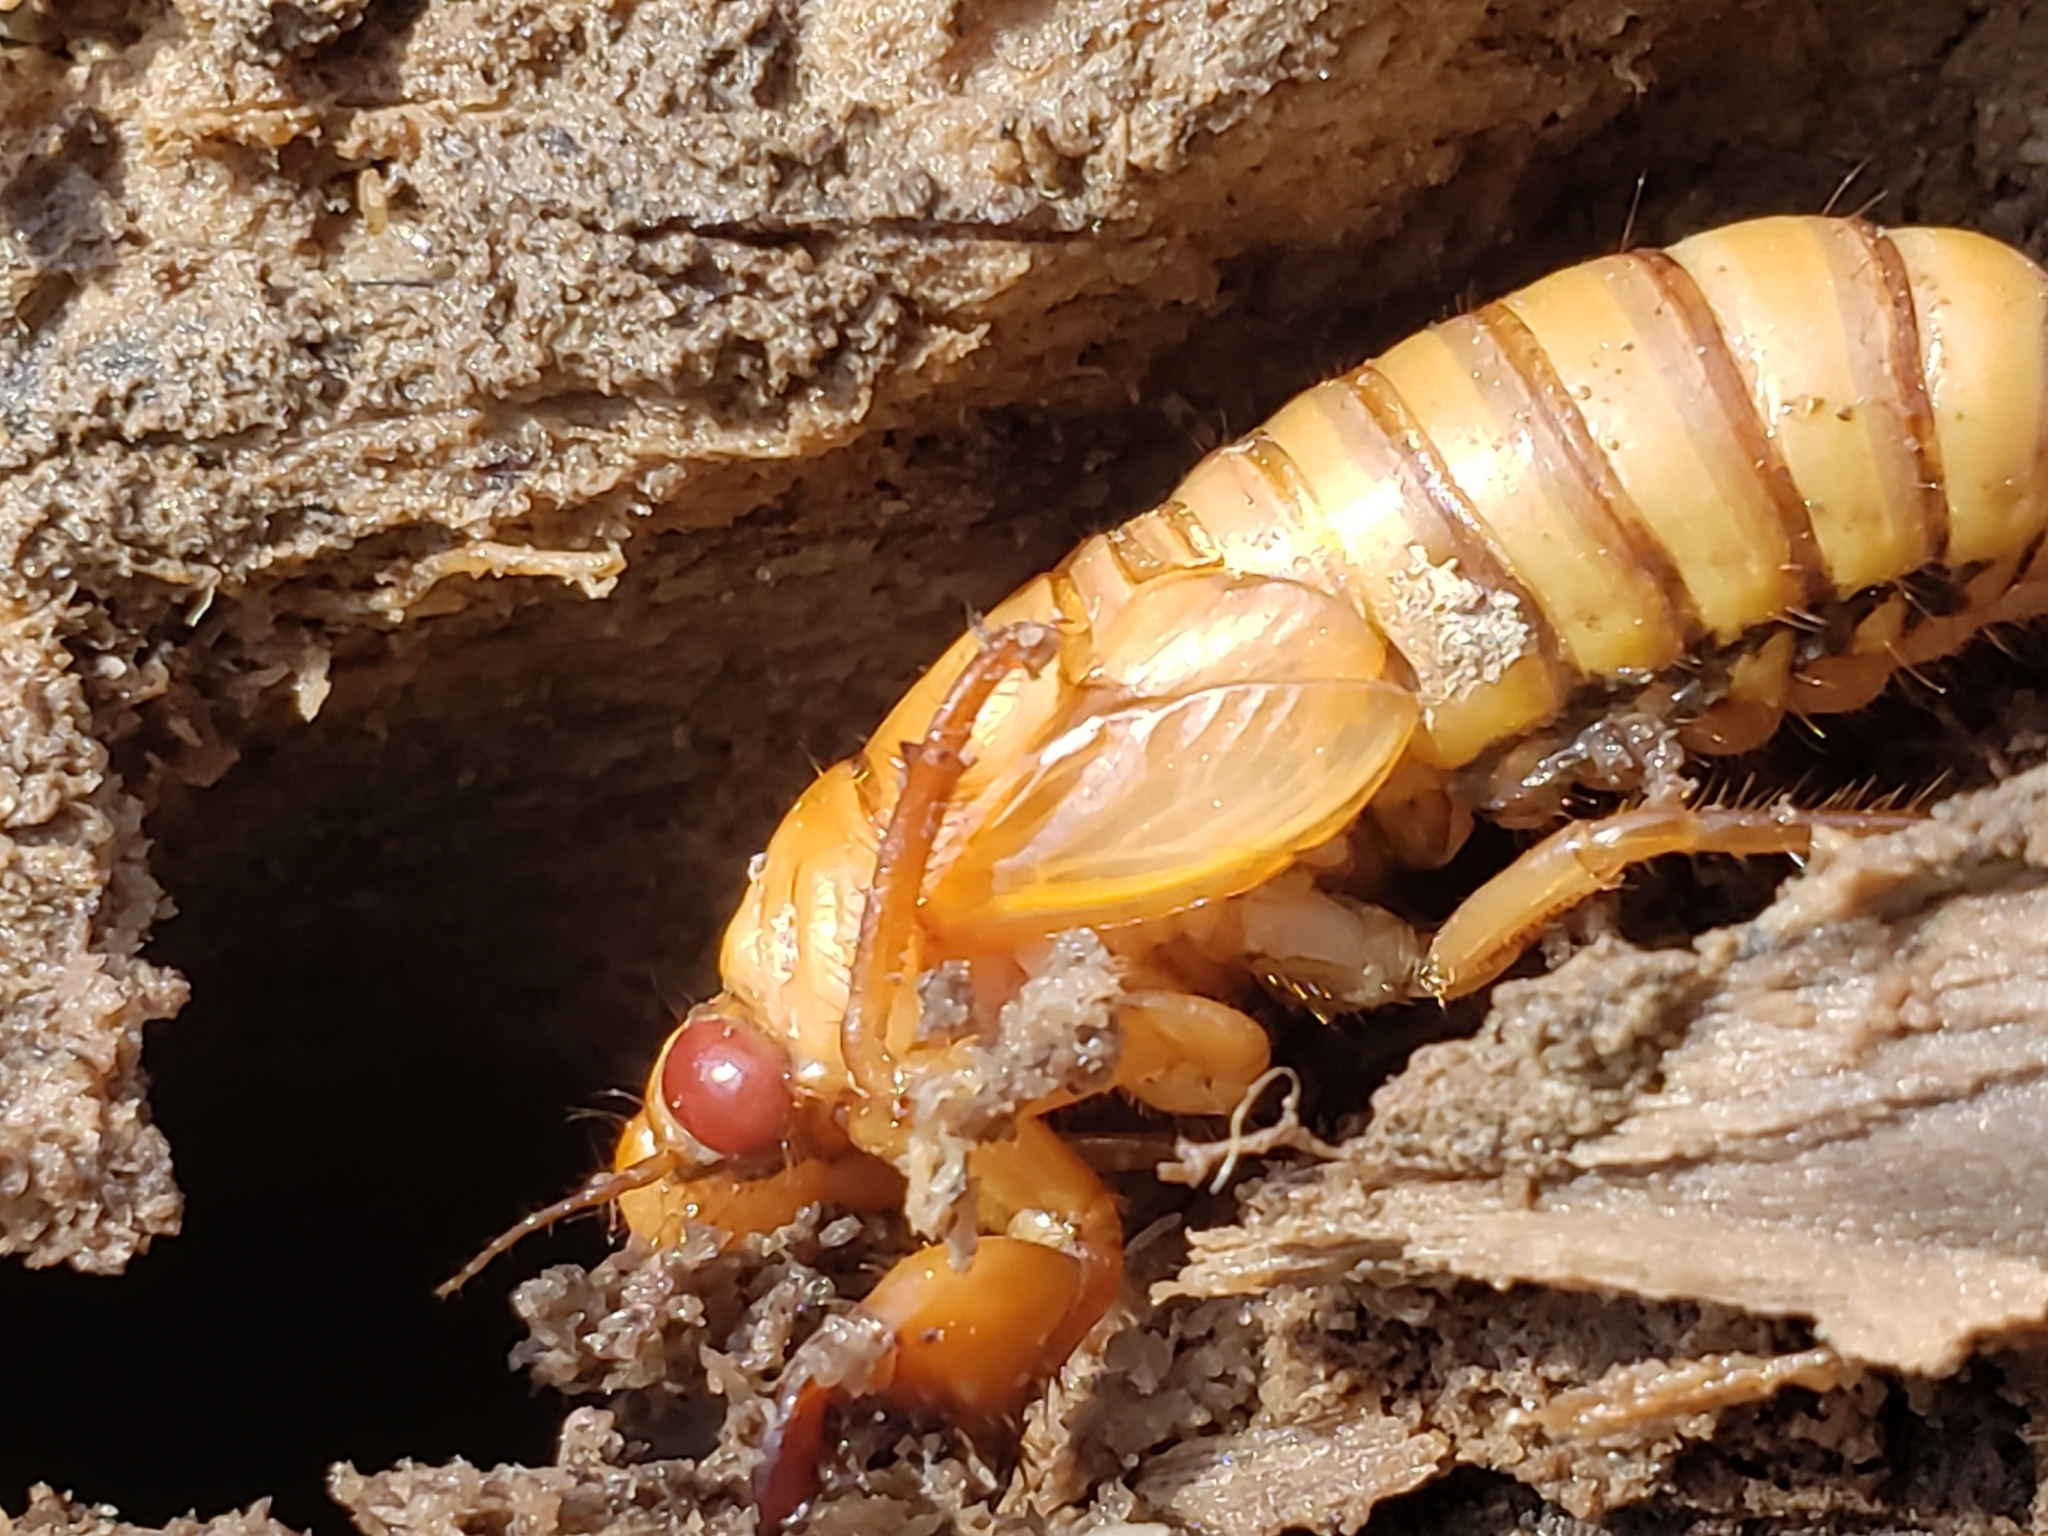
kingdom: Animalia
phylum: Arthropoda
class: Insecta
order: Hemiptera
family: Cicadidae
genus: Magicicada
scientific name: Magicicada
